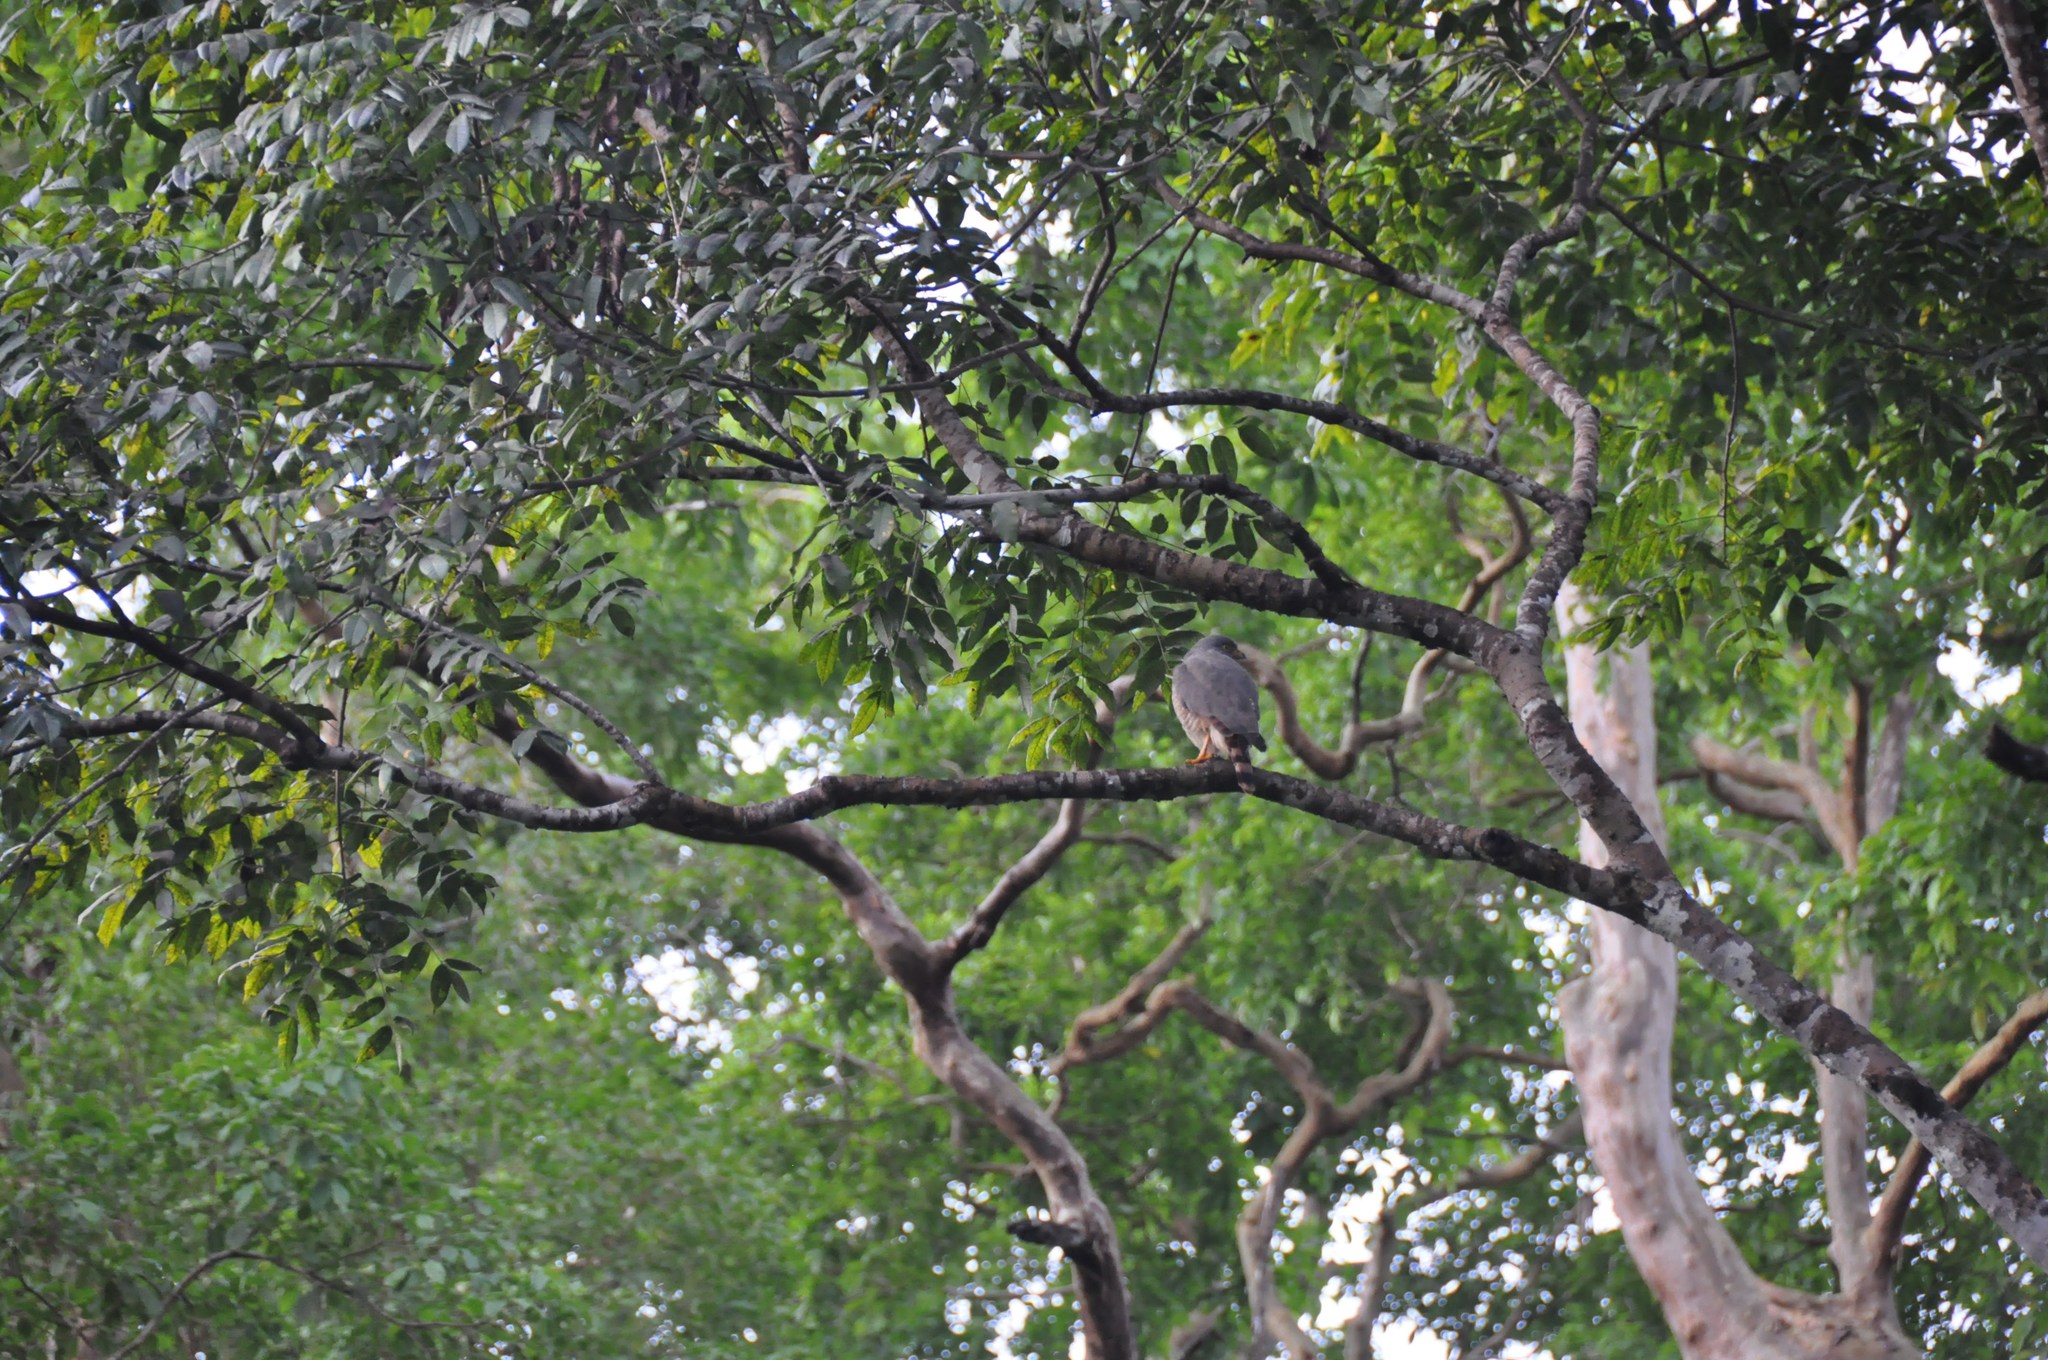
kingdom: Animalia
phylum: Chordata
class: Aves
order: Accipitriformes
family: Accipitridae
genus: Harpagus
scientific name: Harpagus bidentatus
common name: Double-toothed kite
